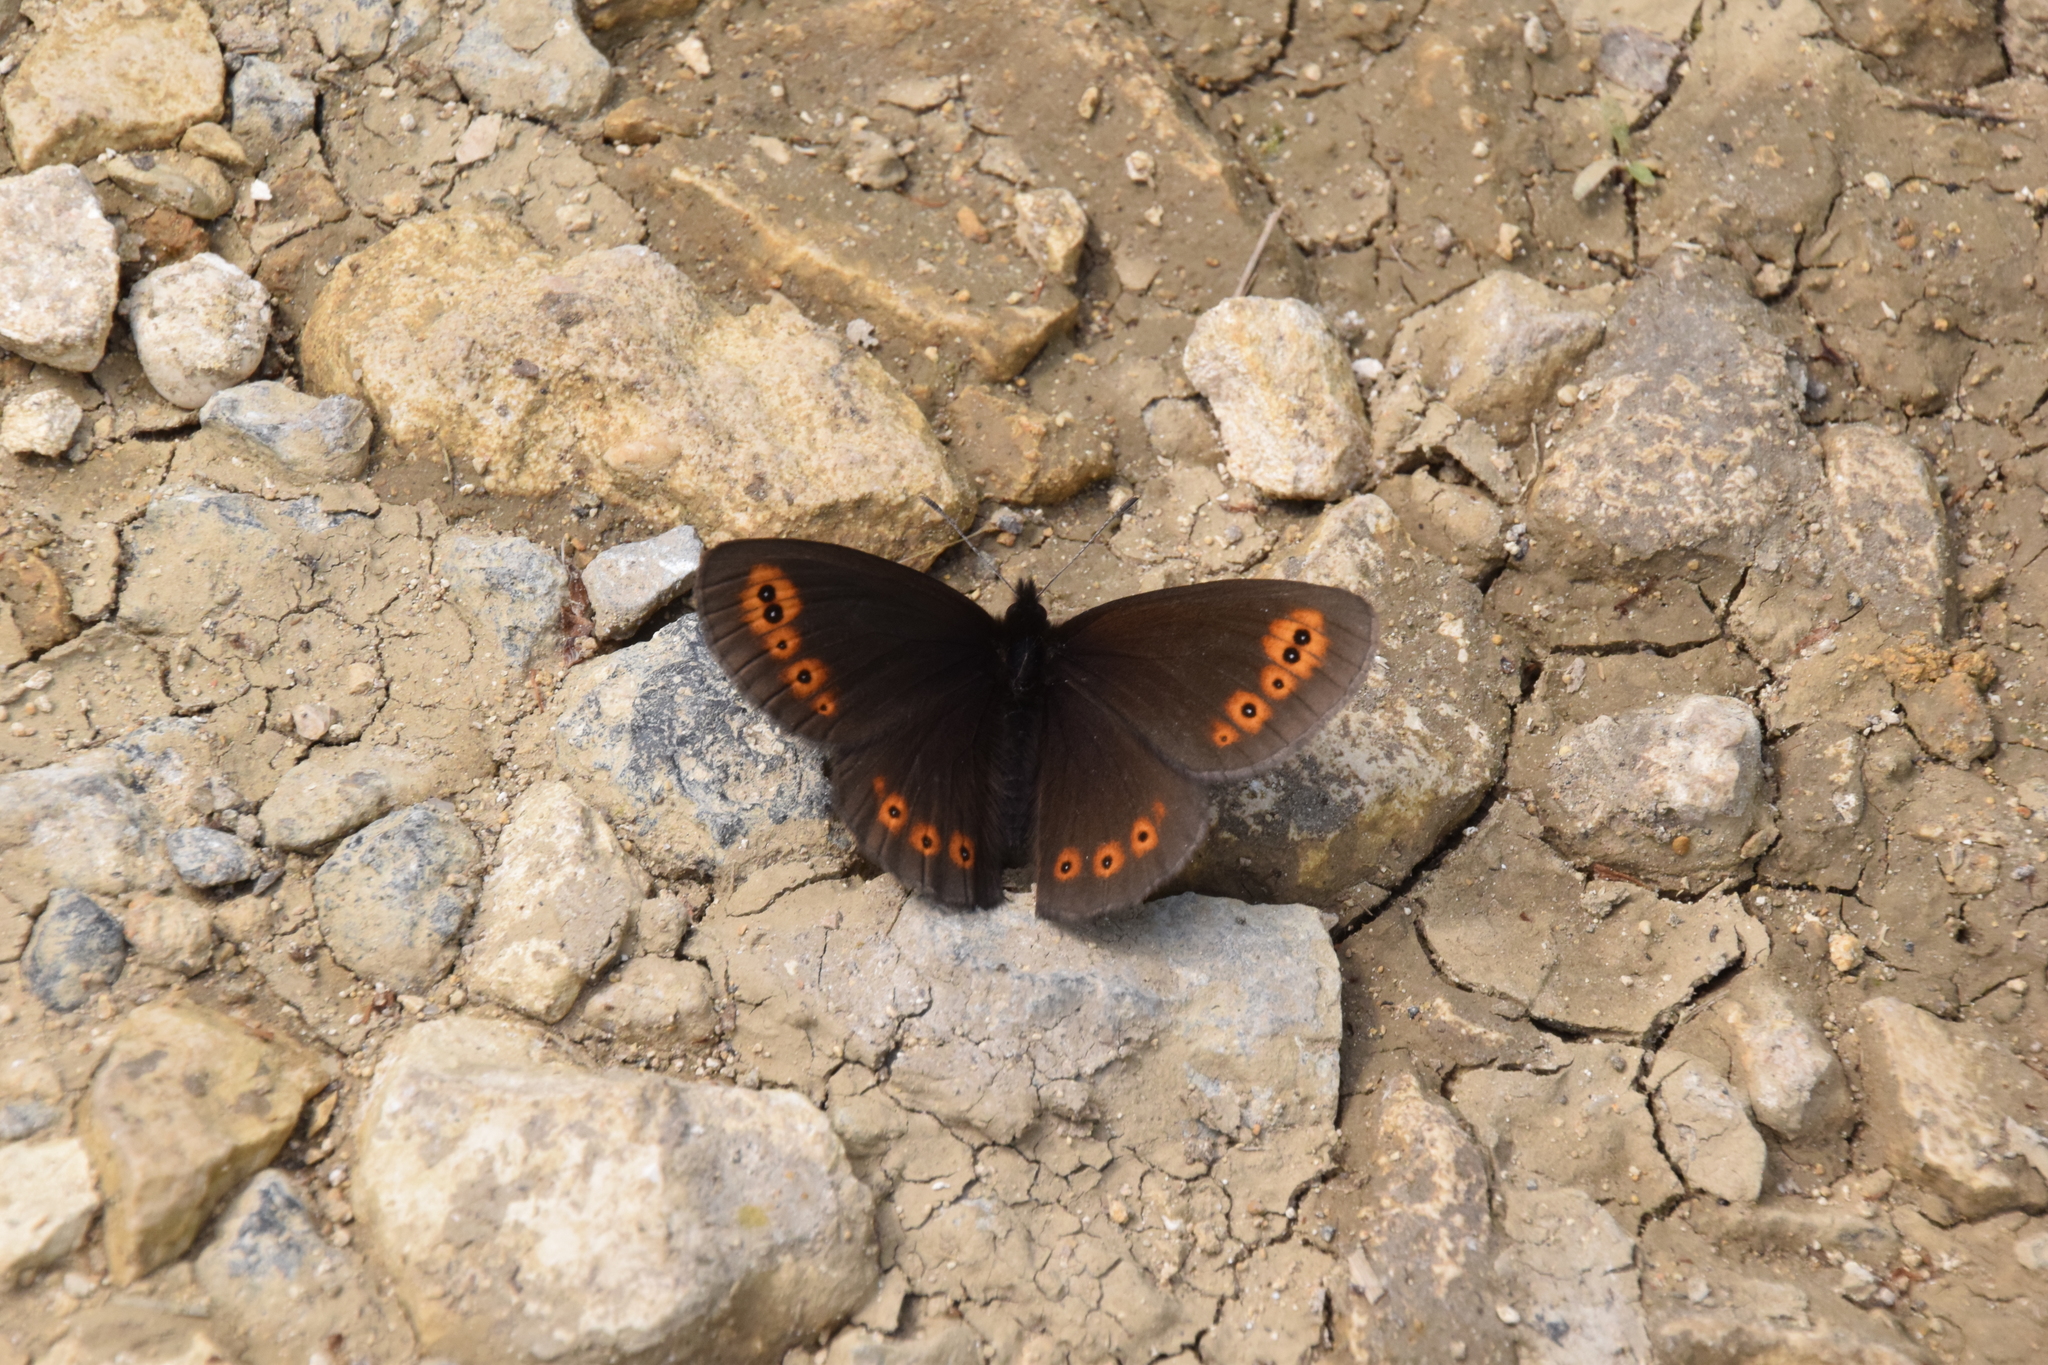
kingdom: Animalia
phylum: Arthropoda
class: Insecta
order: Lepidoptera
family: Nymphalidae
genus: Erebia
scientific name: Erebia medusa
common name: Woodland ringlet
